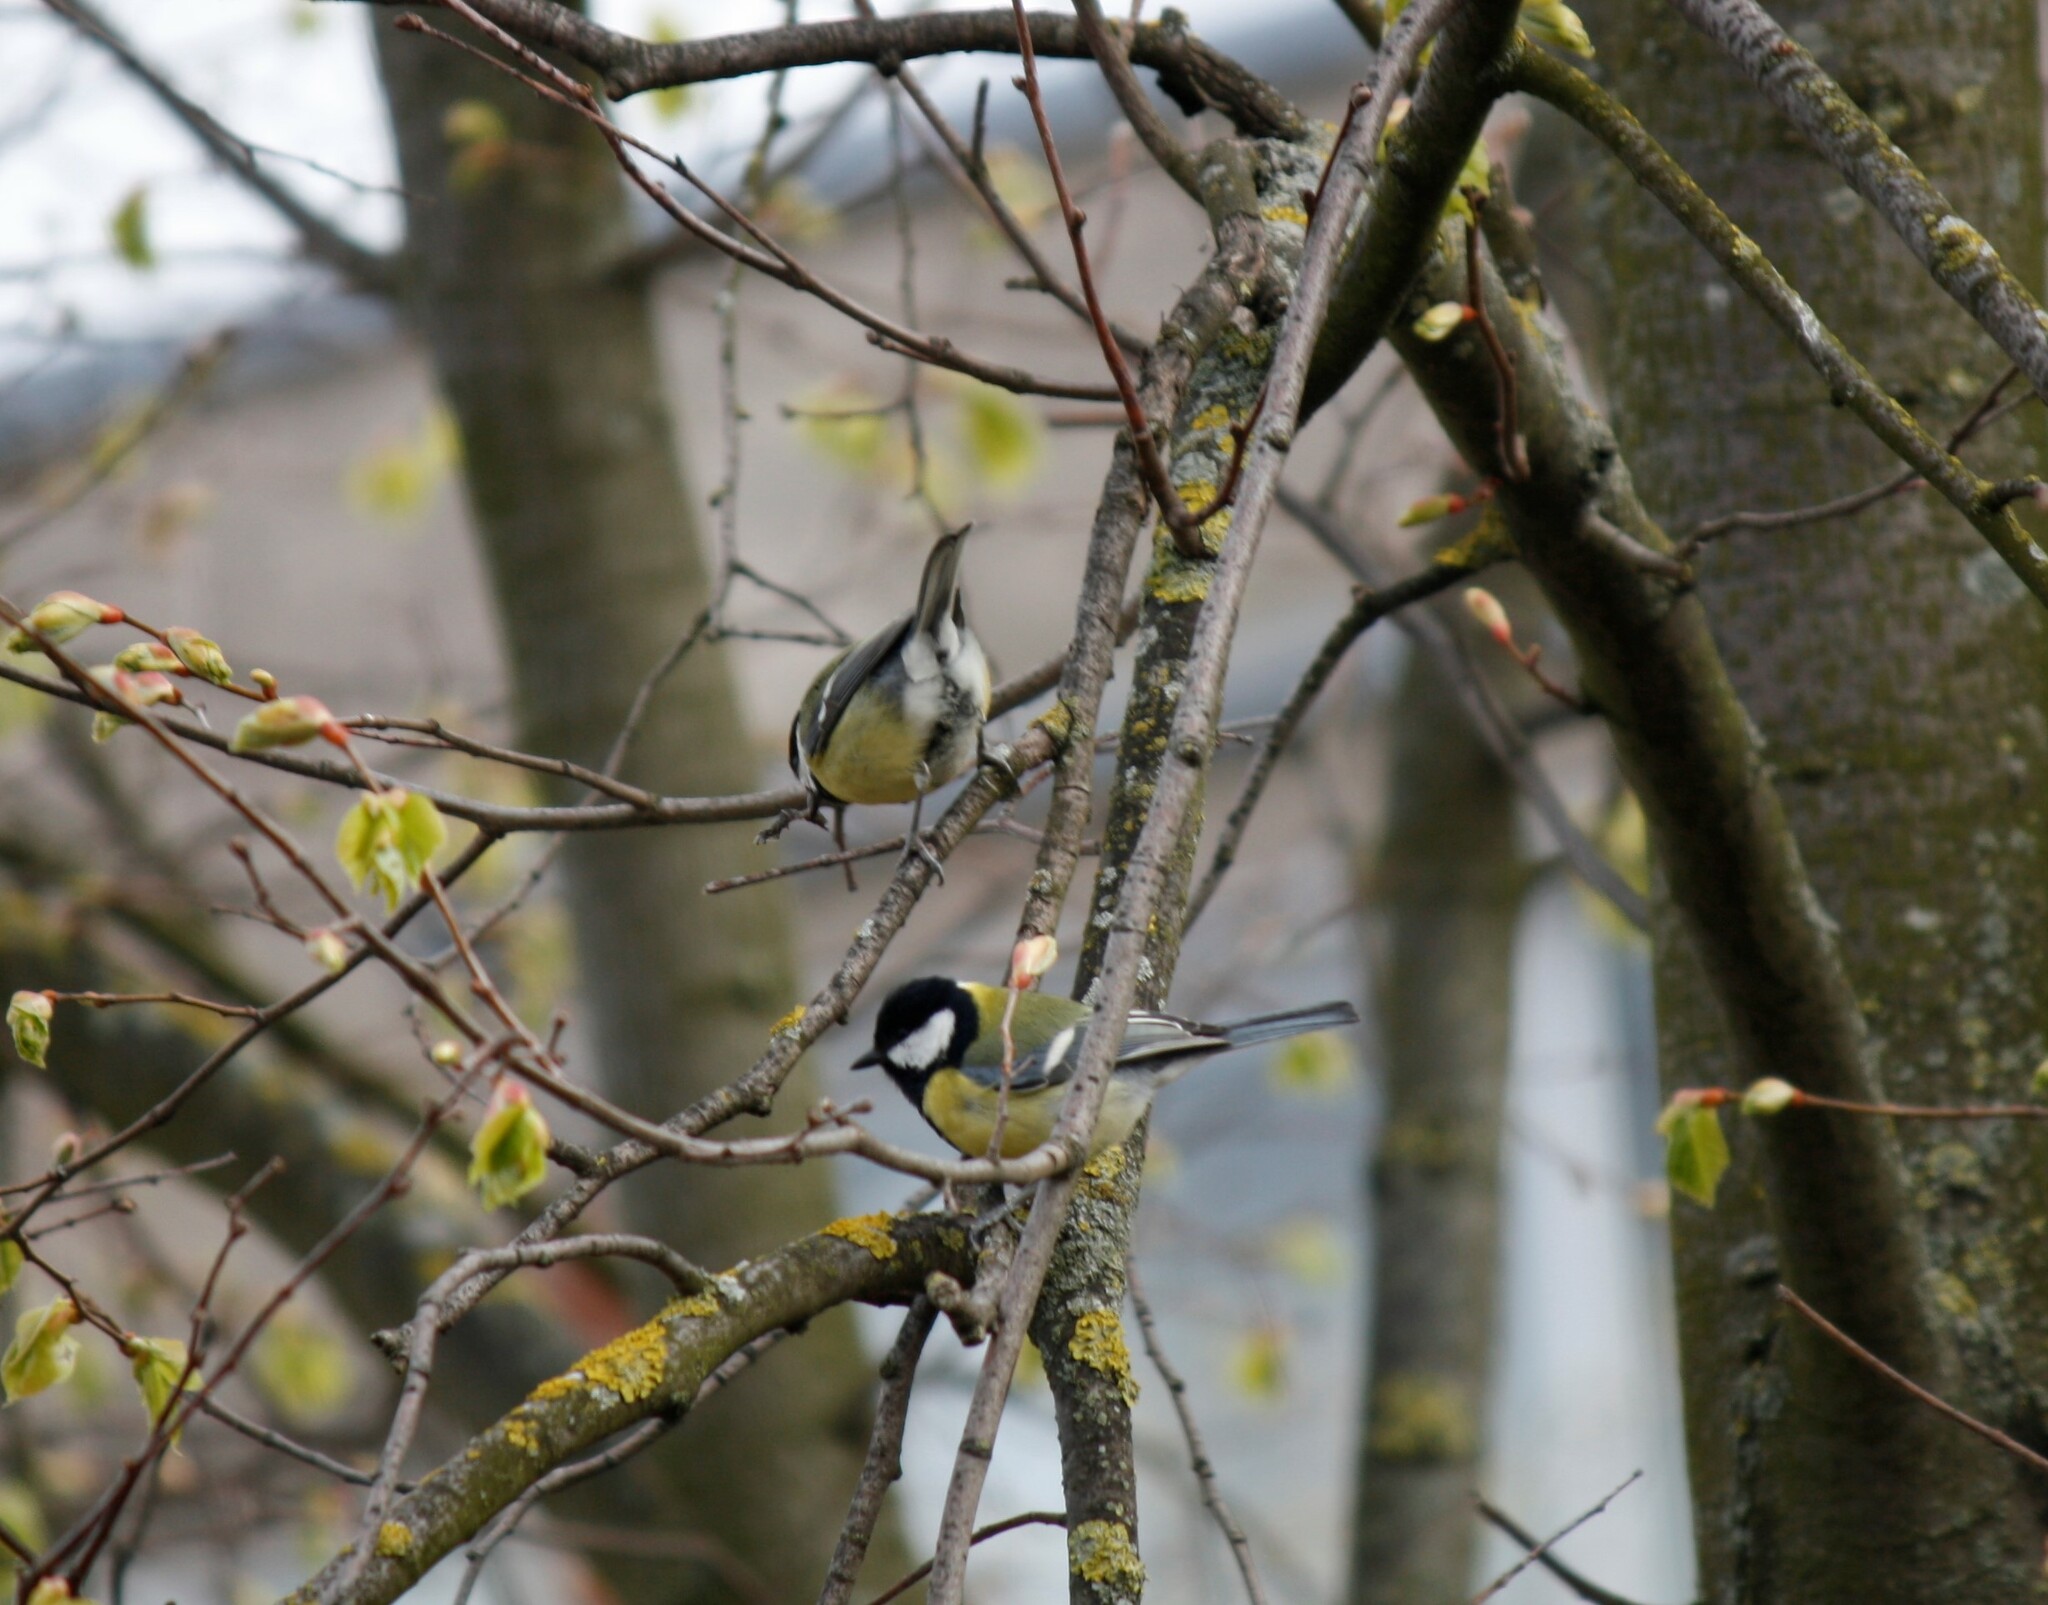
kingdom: Animalia
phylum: Chordata
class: Aves
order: Passeriformes
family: Paridae
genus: Parus
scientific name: Parus major
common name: Great tit
